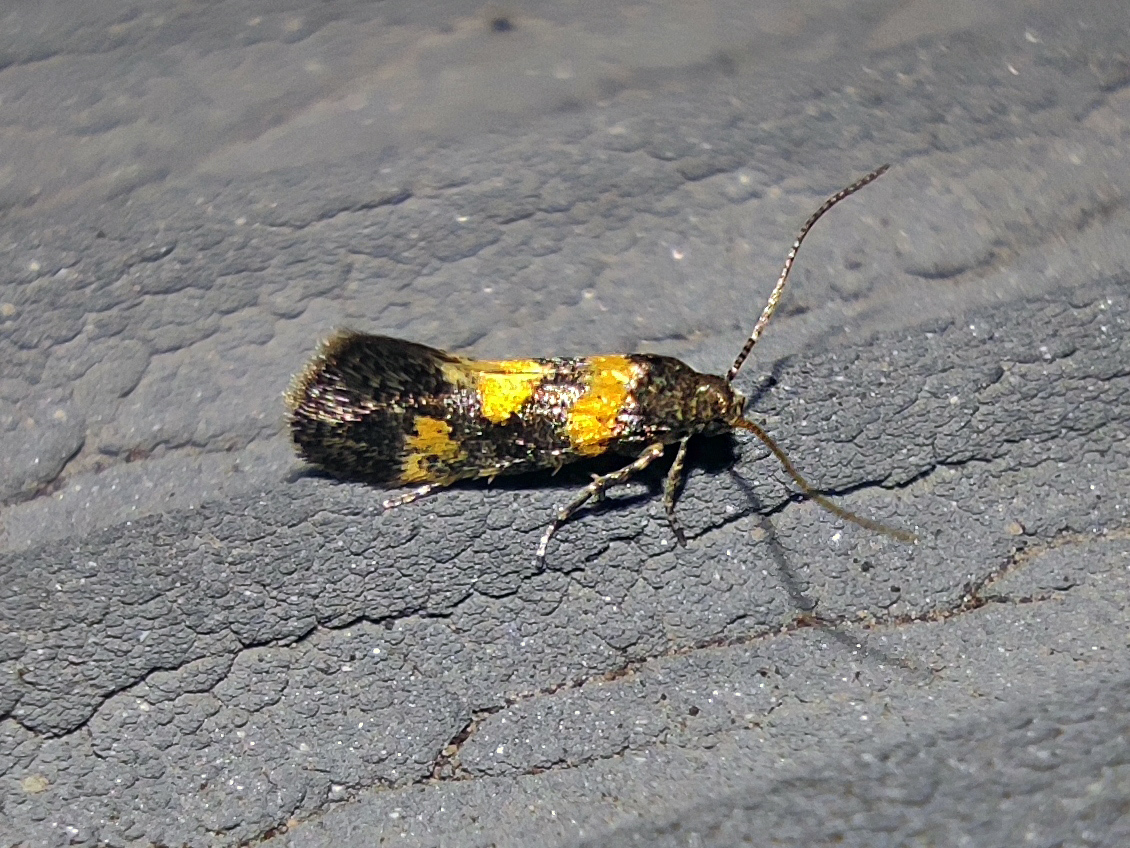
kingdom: Animalia
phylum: Arthropoda
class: Insecta
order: Lepidoptera
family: Gelechiidae
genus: Chrysoesthia
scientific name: Chrysoesthia sexguttella
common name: Moth
